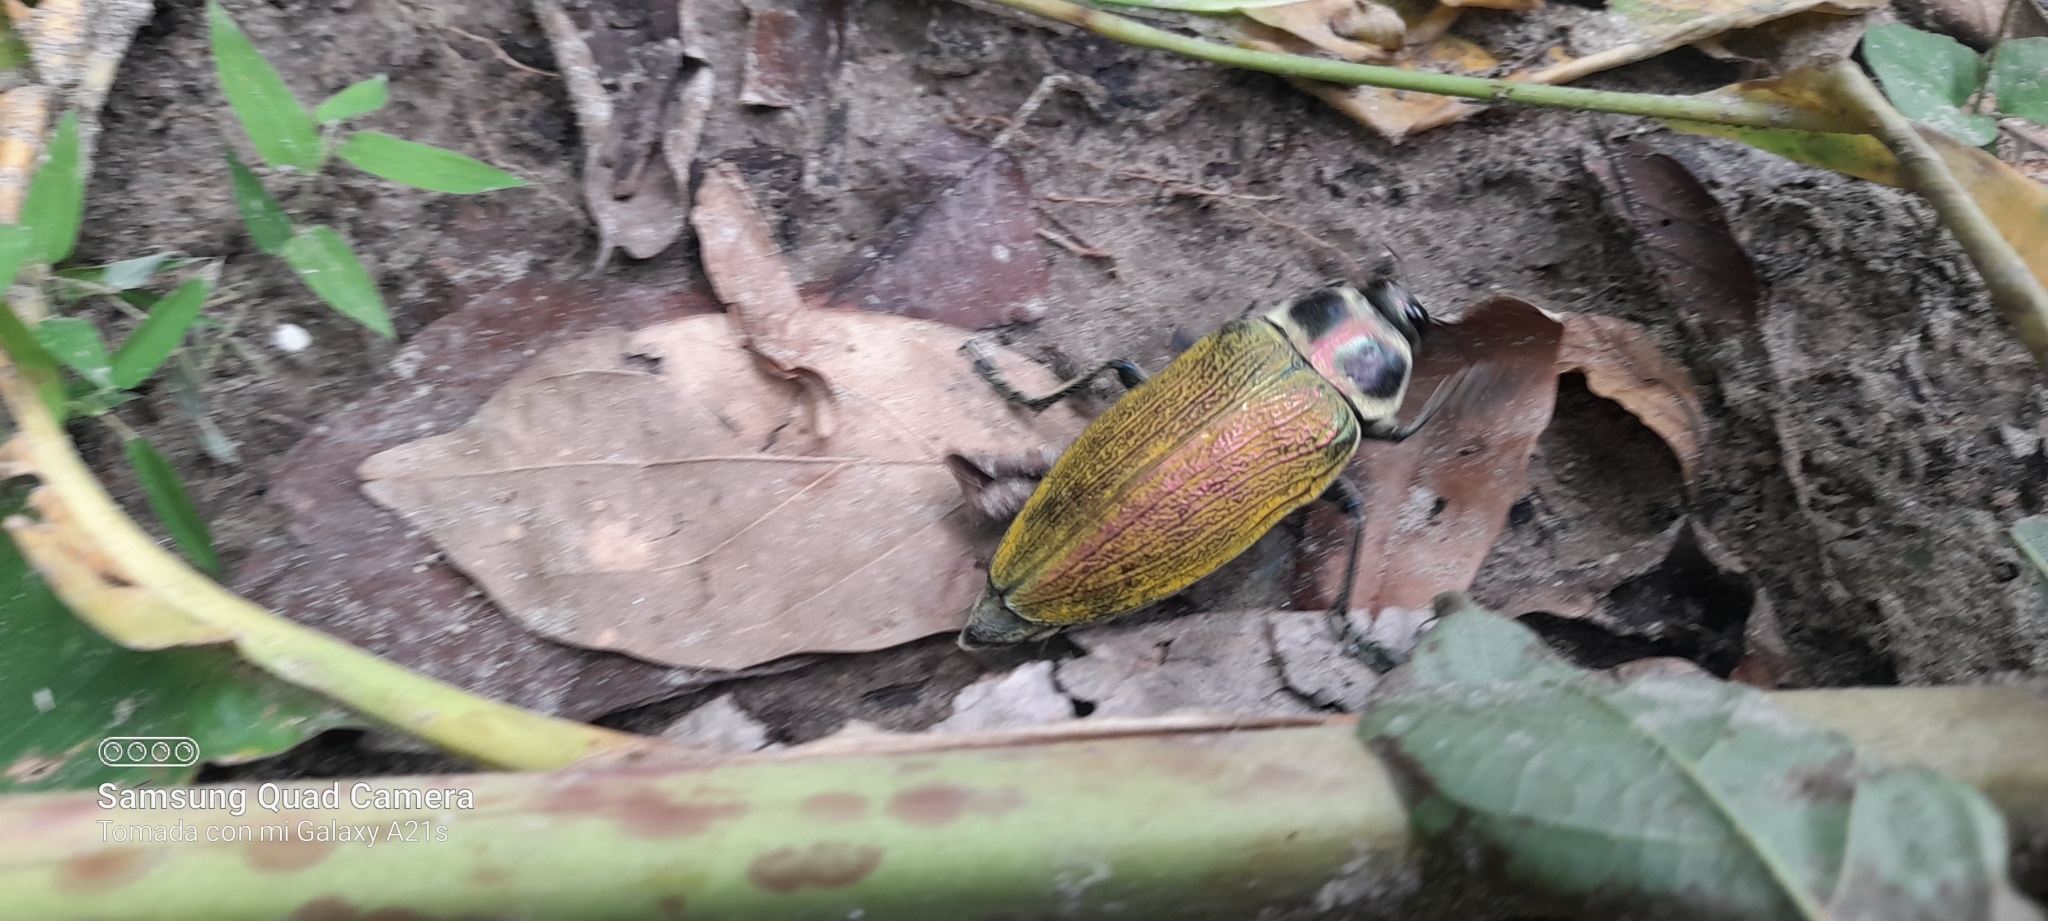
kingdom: Animalia
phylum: Arthropoda
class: Insecta
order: Coleoptera
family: Buprestidae
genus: Euchroma
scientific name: Euchroma giganteum
